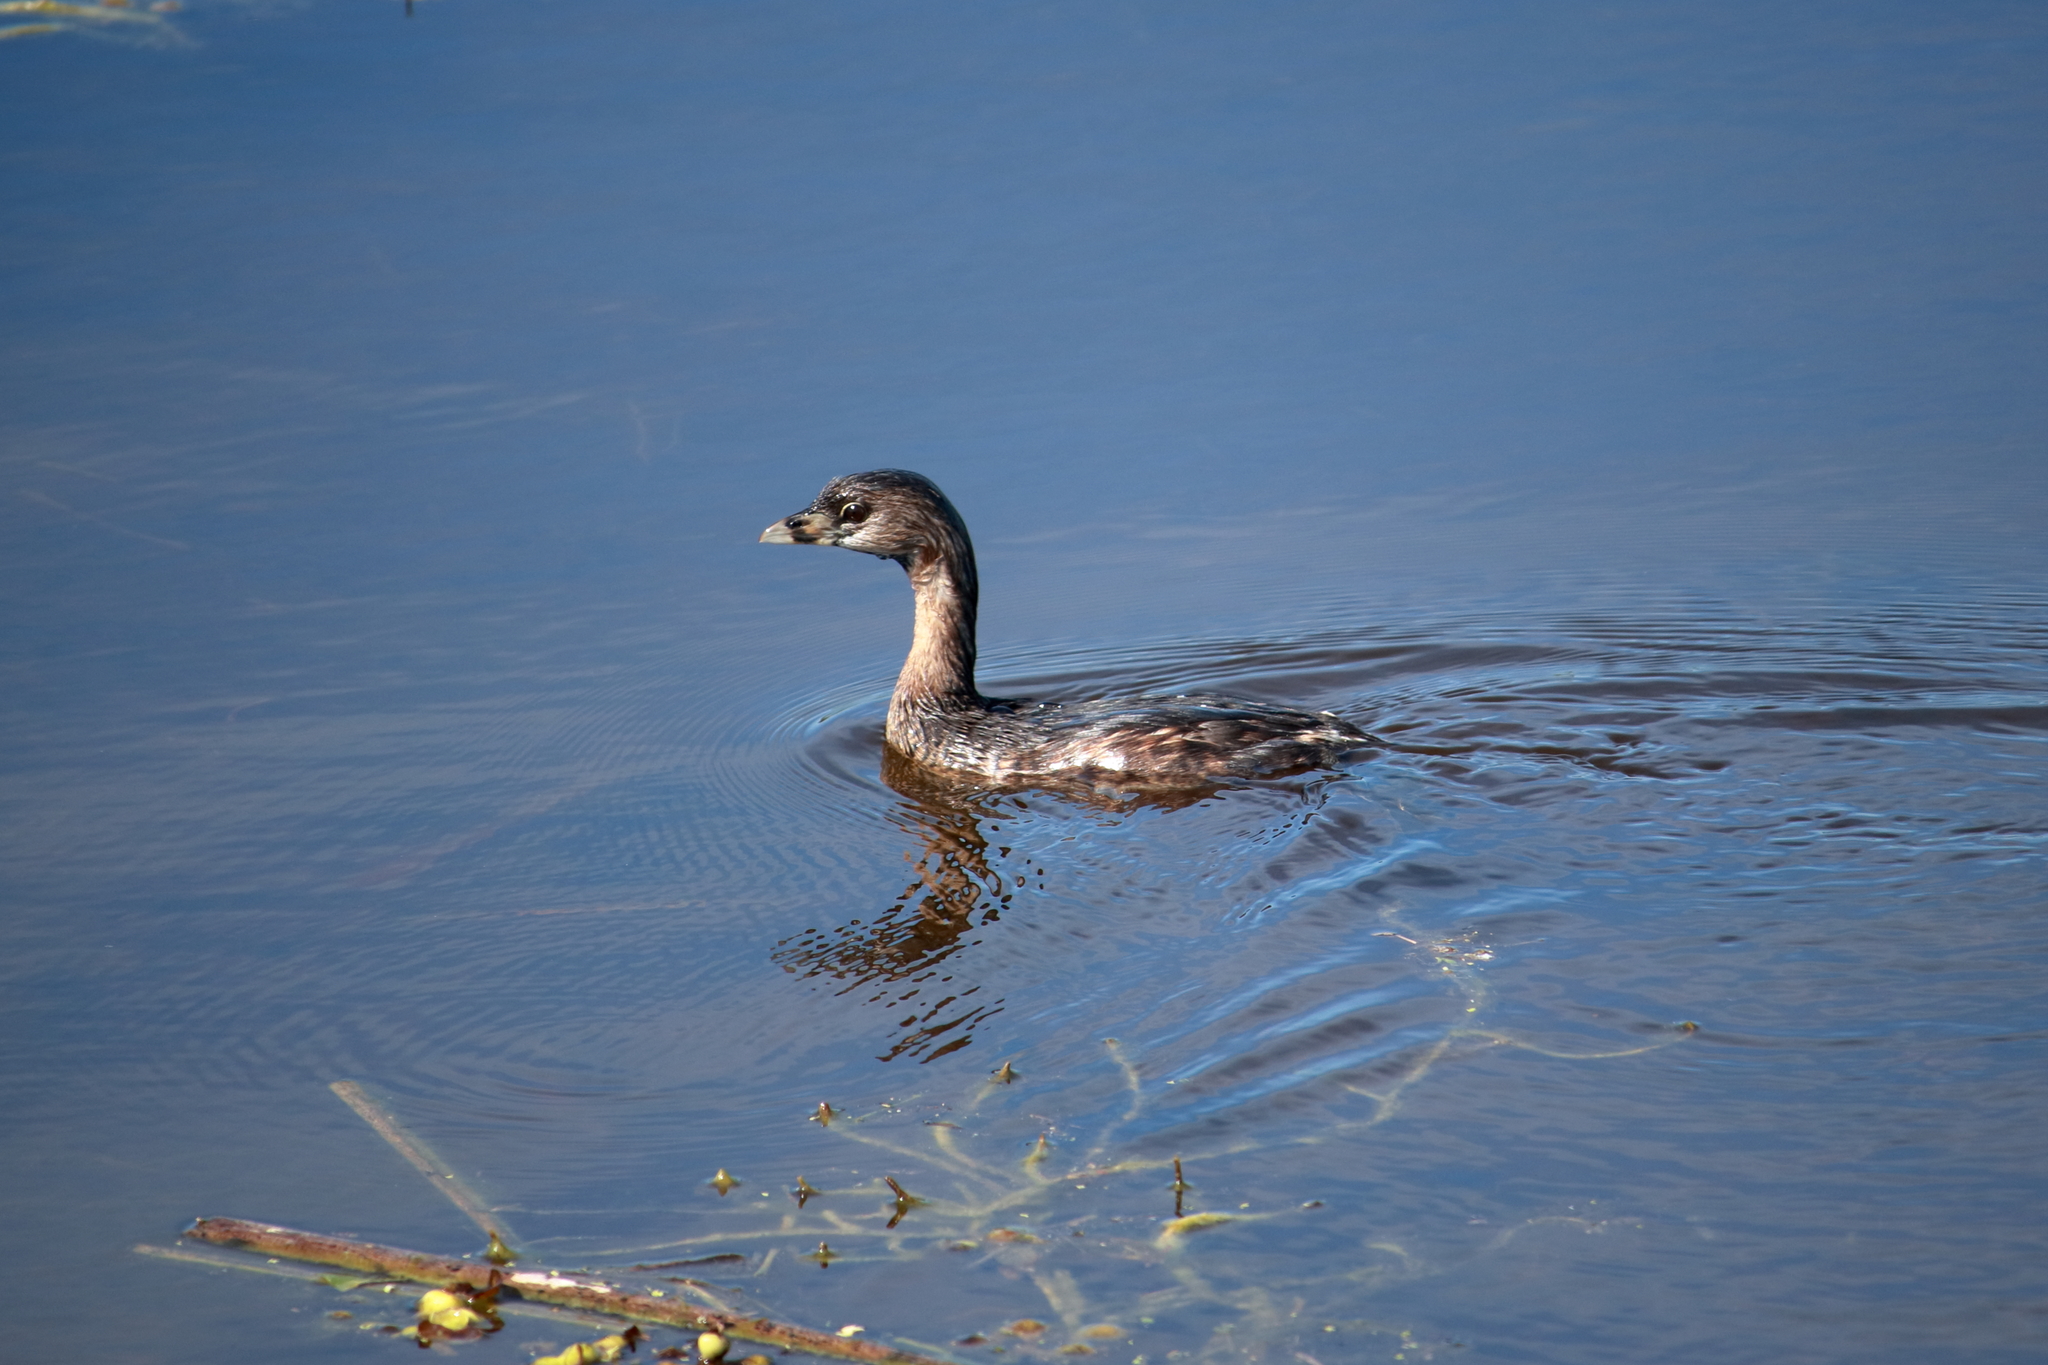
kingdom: Animalia
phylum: Chordata
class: Aves
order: Podicipediformes
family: Podicipedidae
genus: Podilymbus
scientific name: Podilymbus podiceps
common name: Pied-billed grebe
